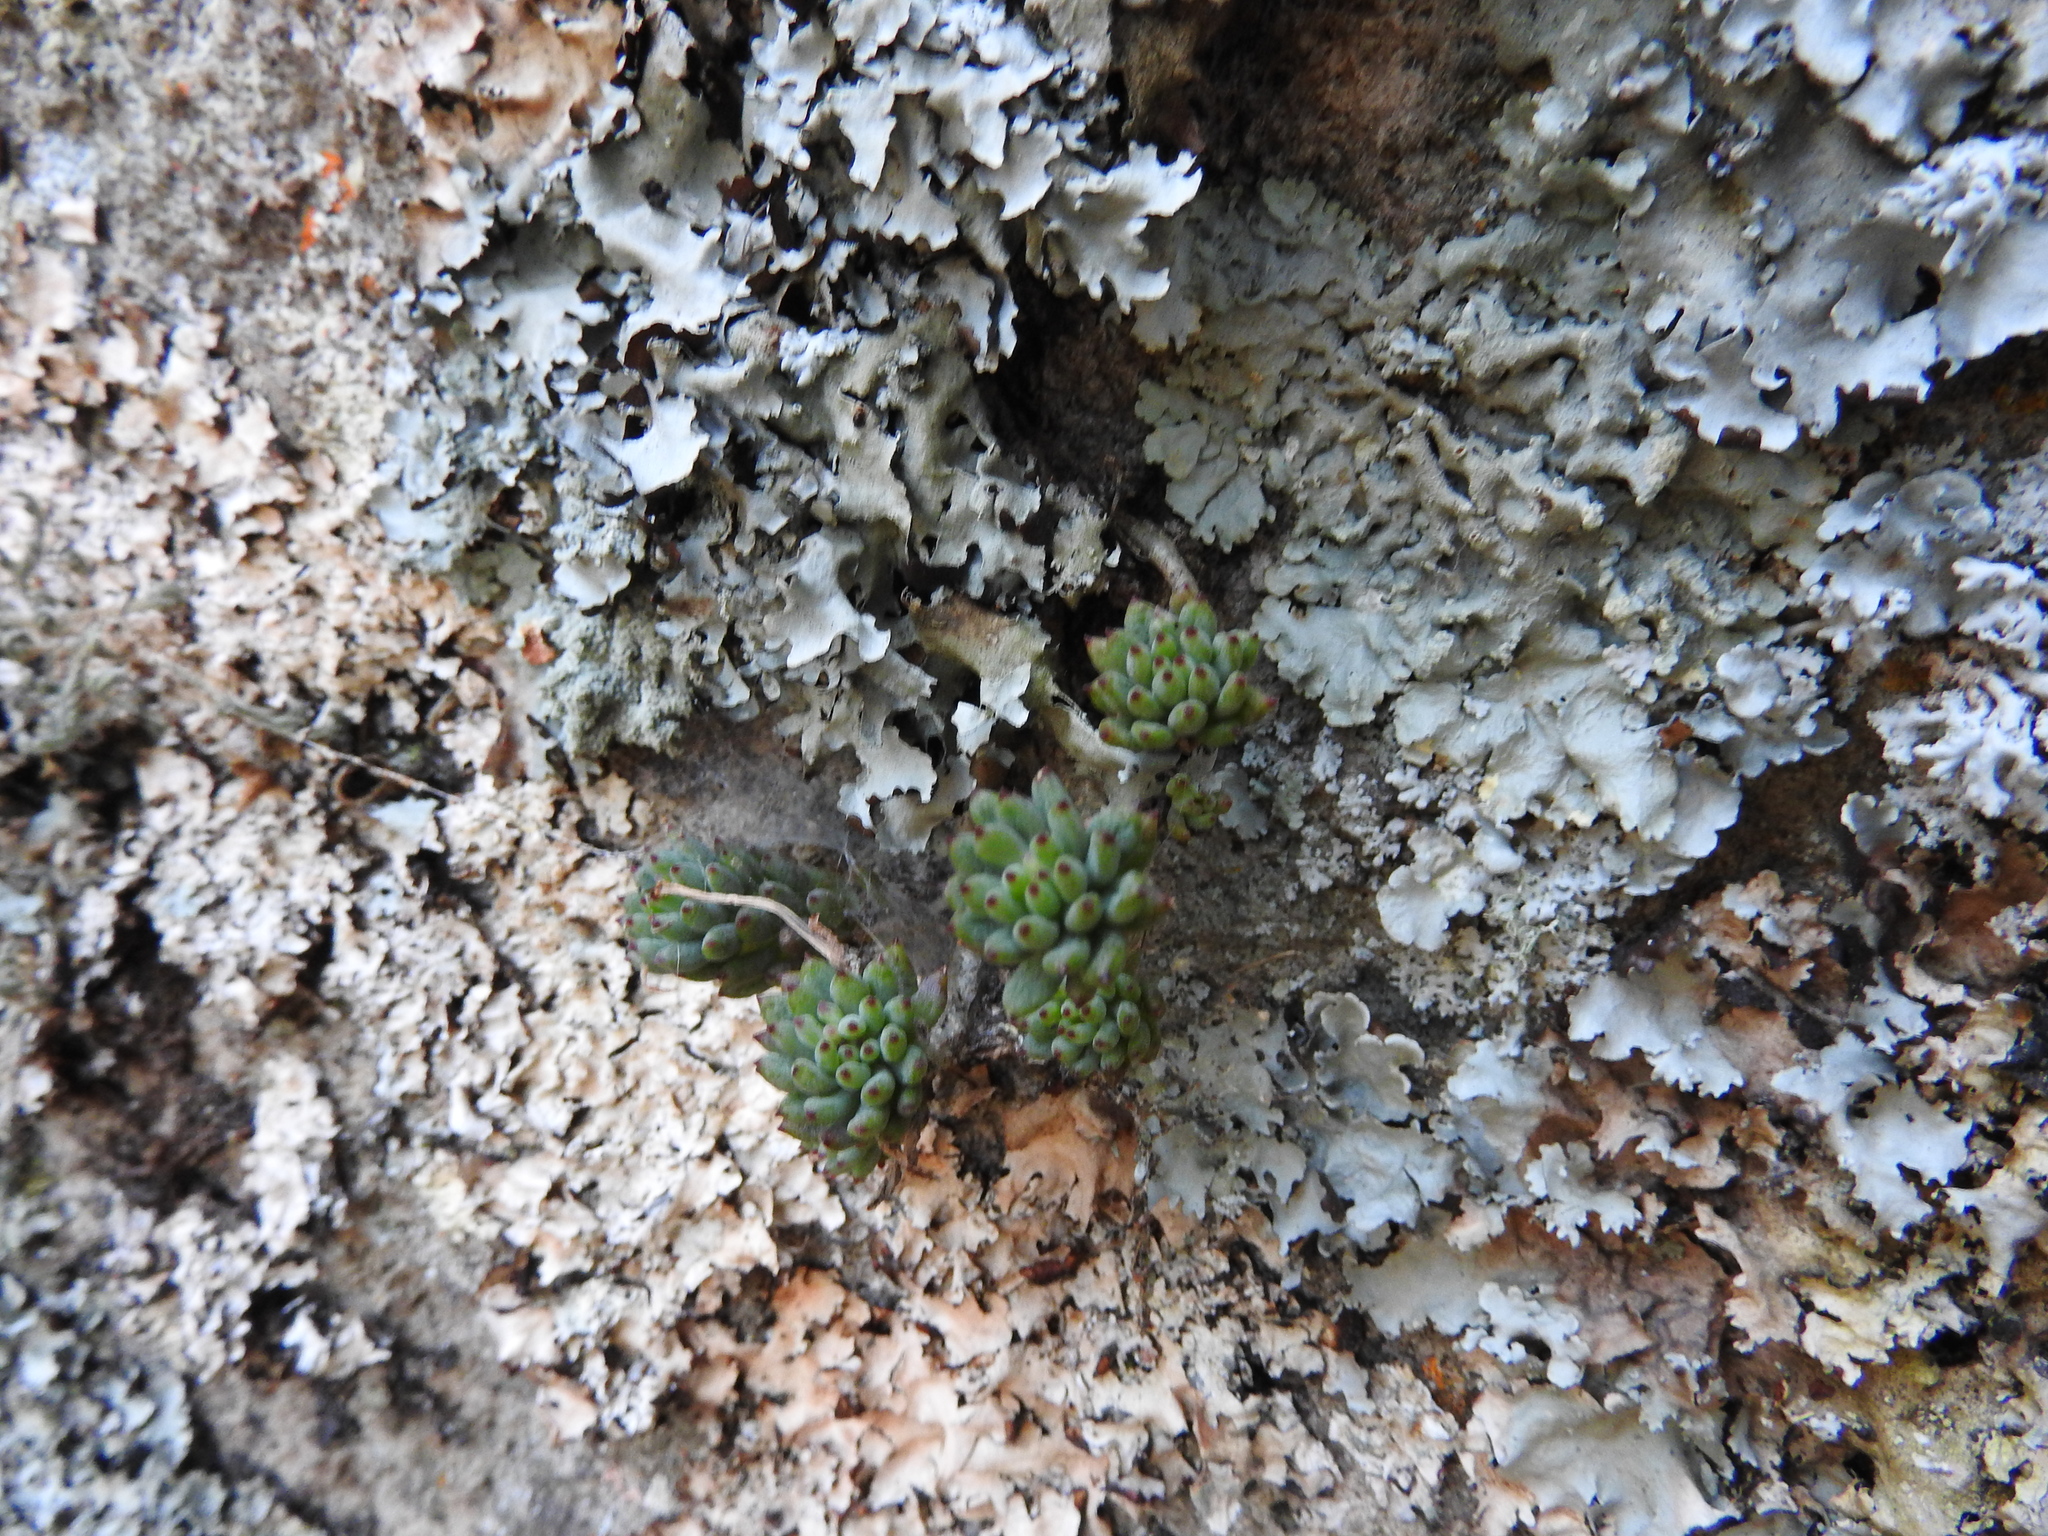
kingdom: Plantae
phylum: Tracheophyta
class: Magnoliopsida
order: Saxifragales
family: Crassulaceae
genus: Graptopetalum
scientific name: Graptopetalum pachyphyllum
